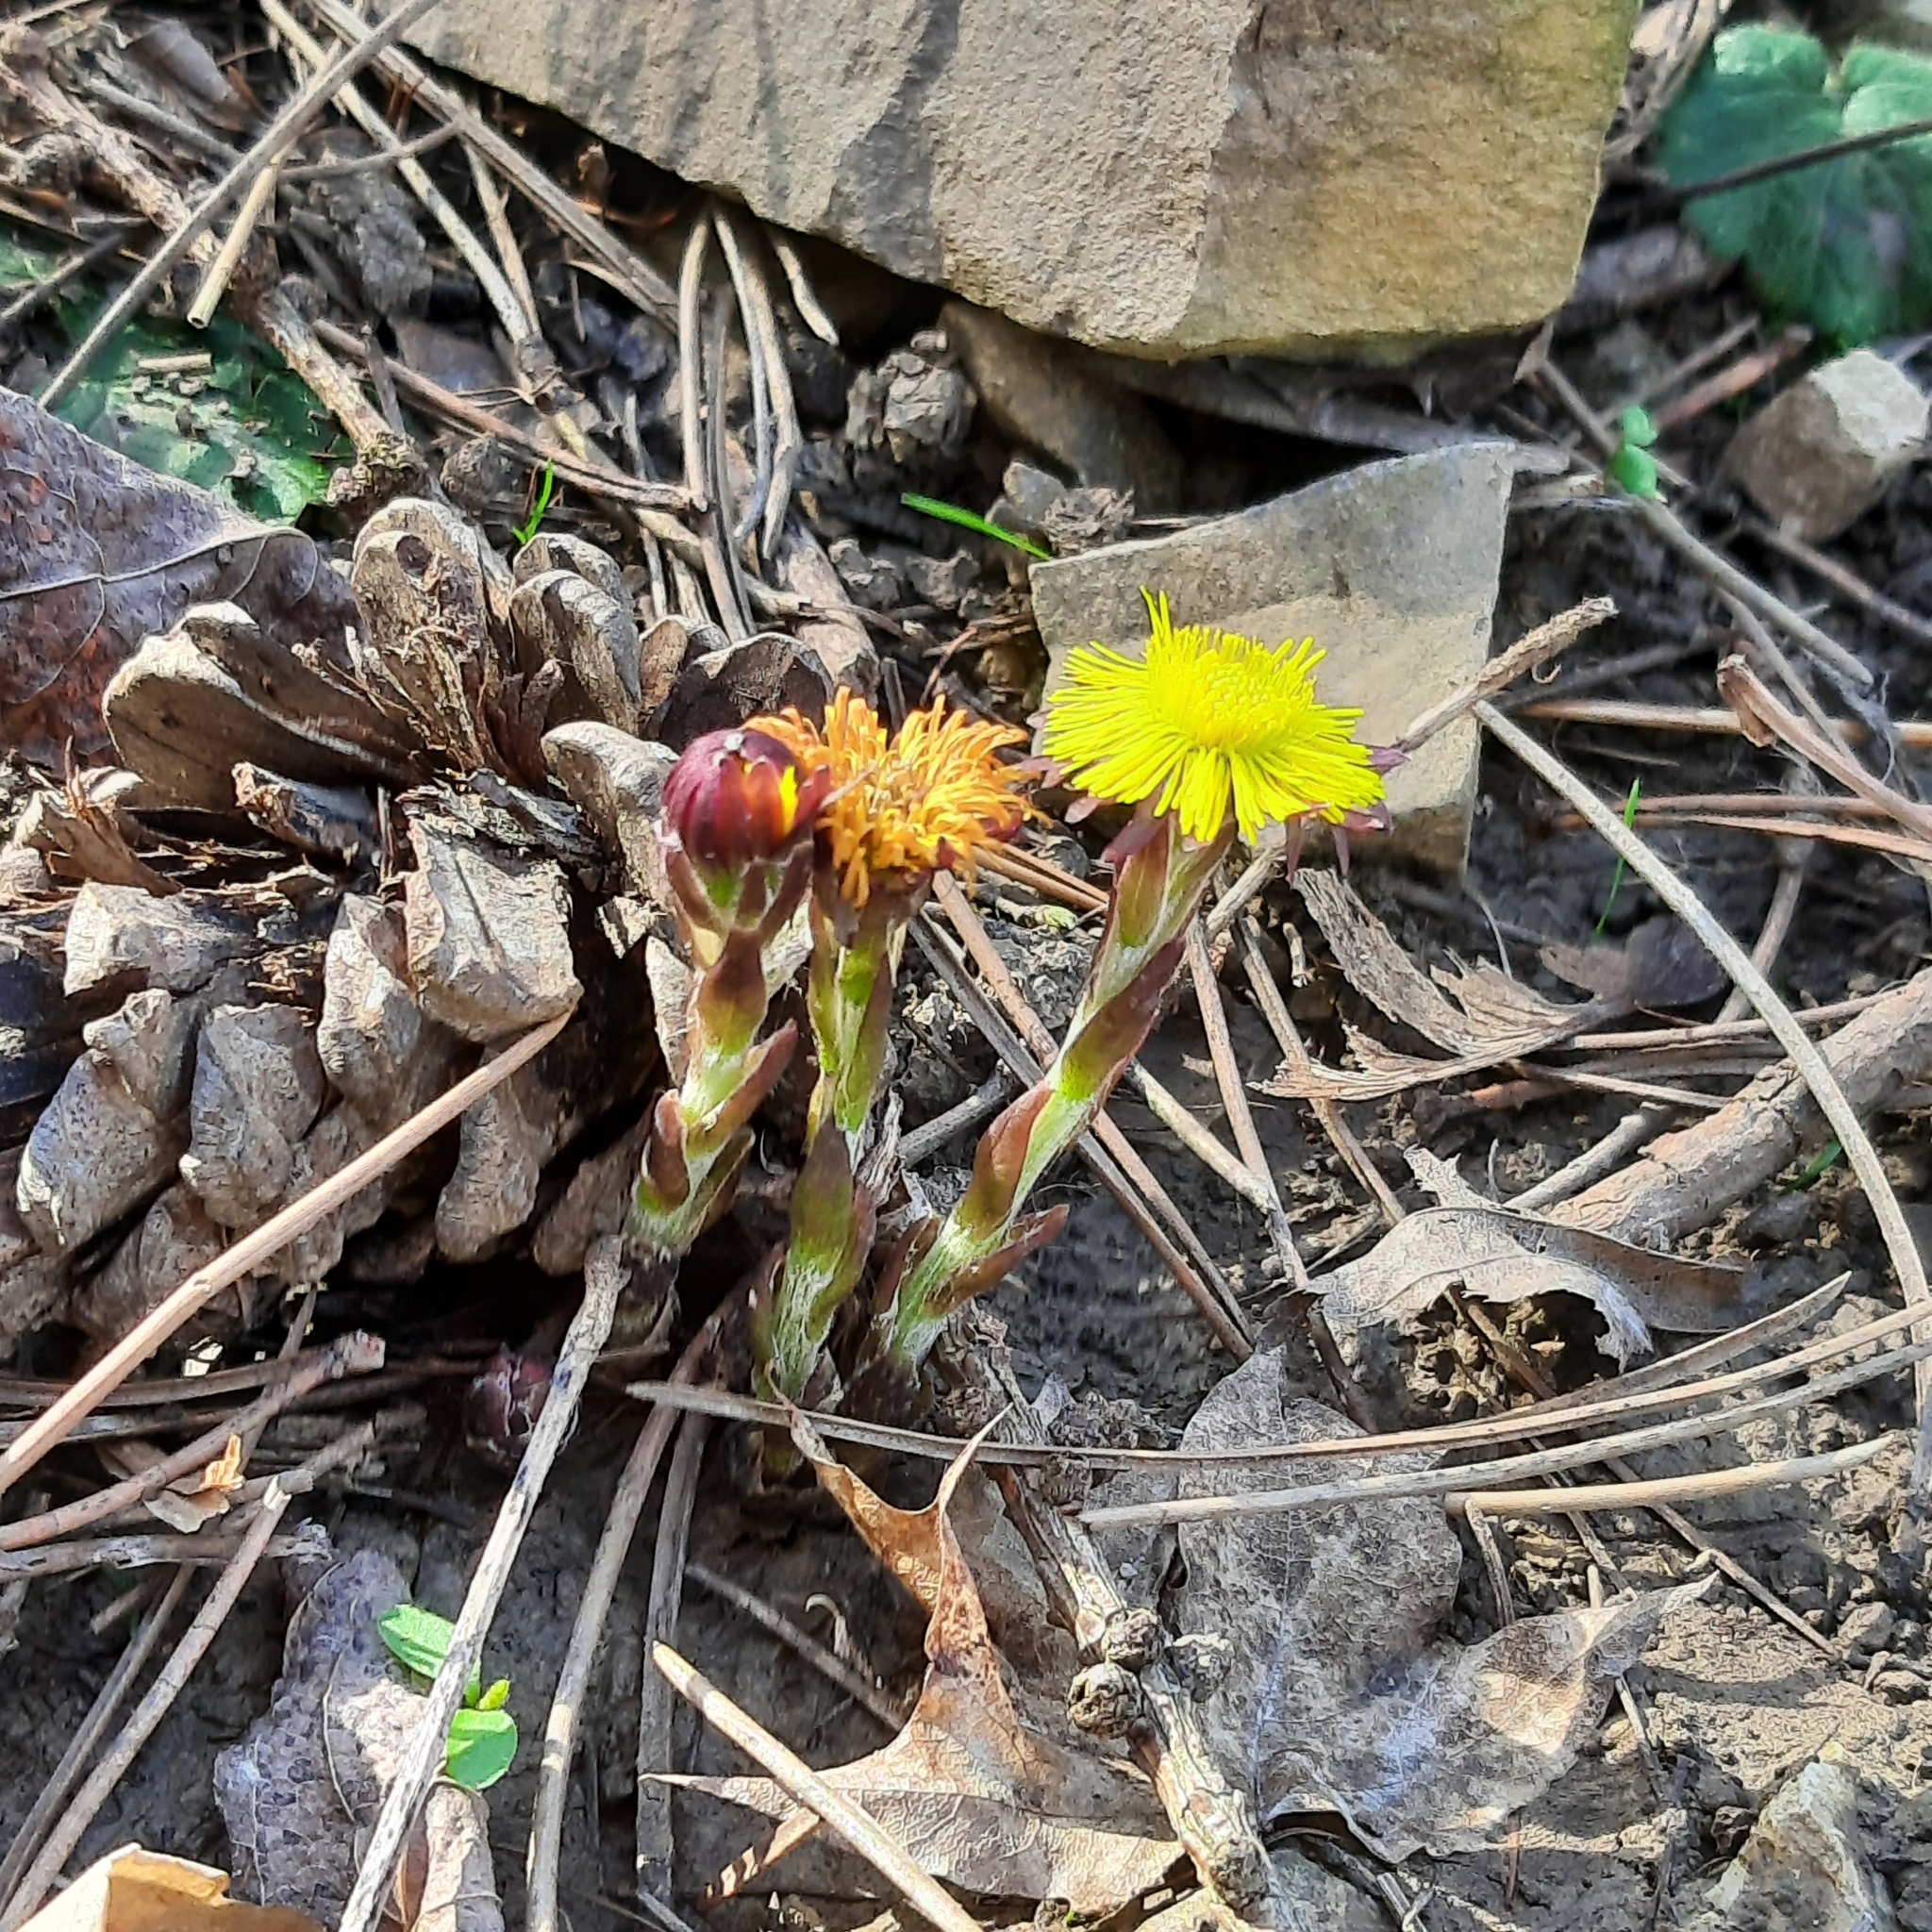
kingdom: Plantae
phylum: Tracheophyta
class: Magnoliopsida
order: Asterales
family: Asteraceae
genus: Tussilago
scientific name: Tussilago farfara
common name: Coltsfoot
